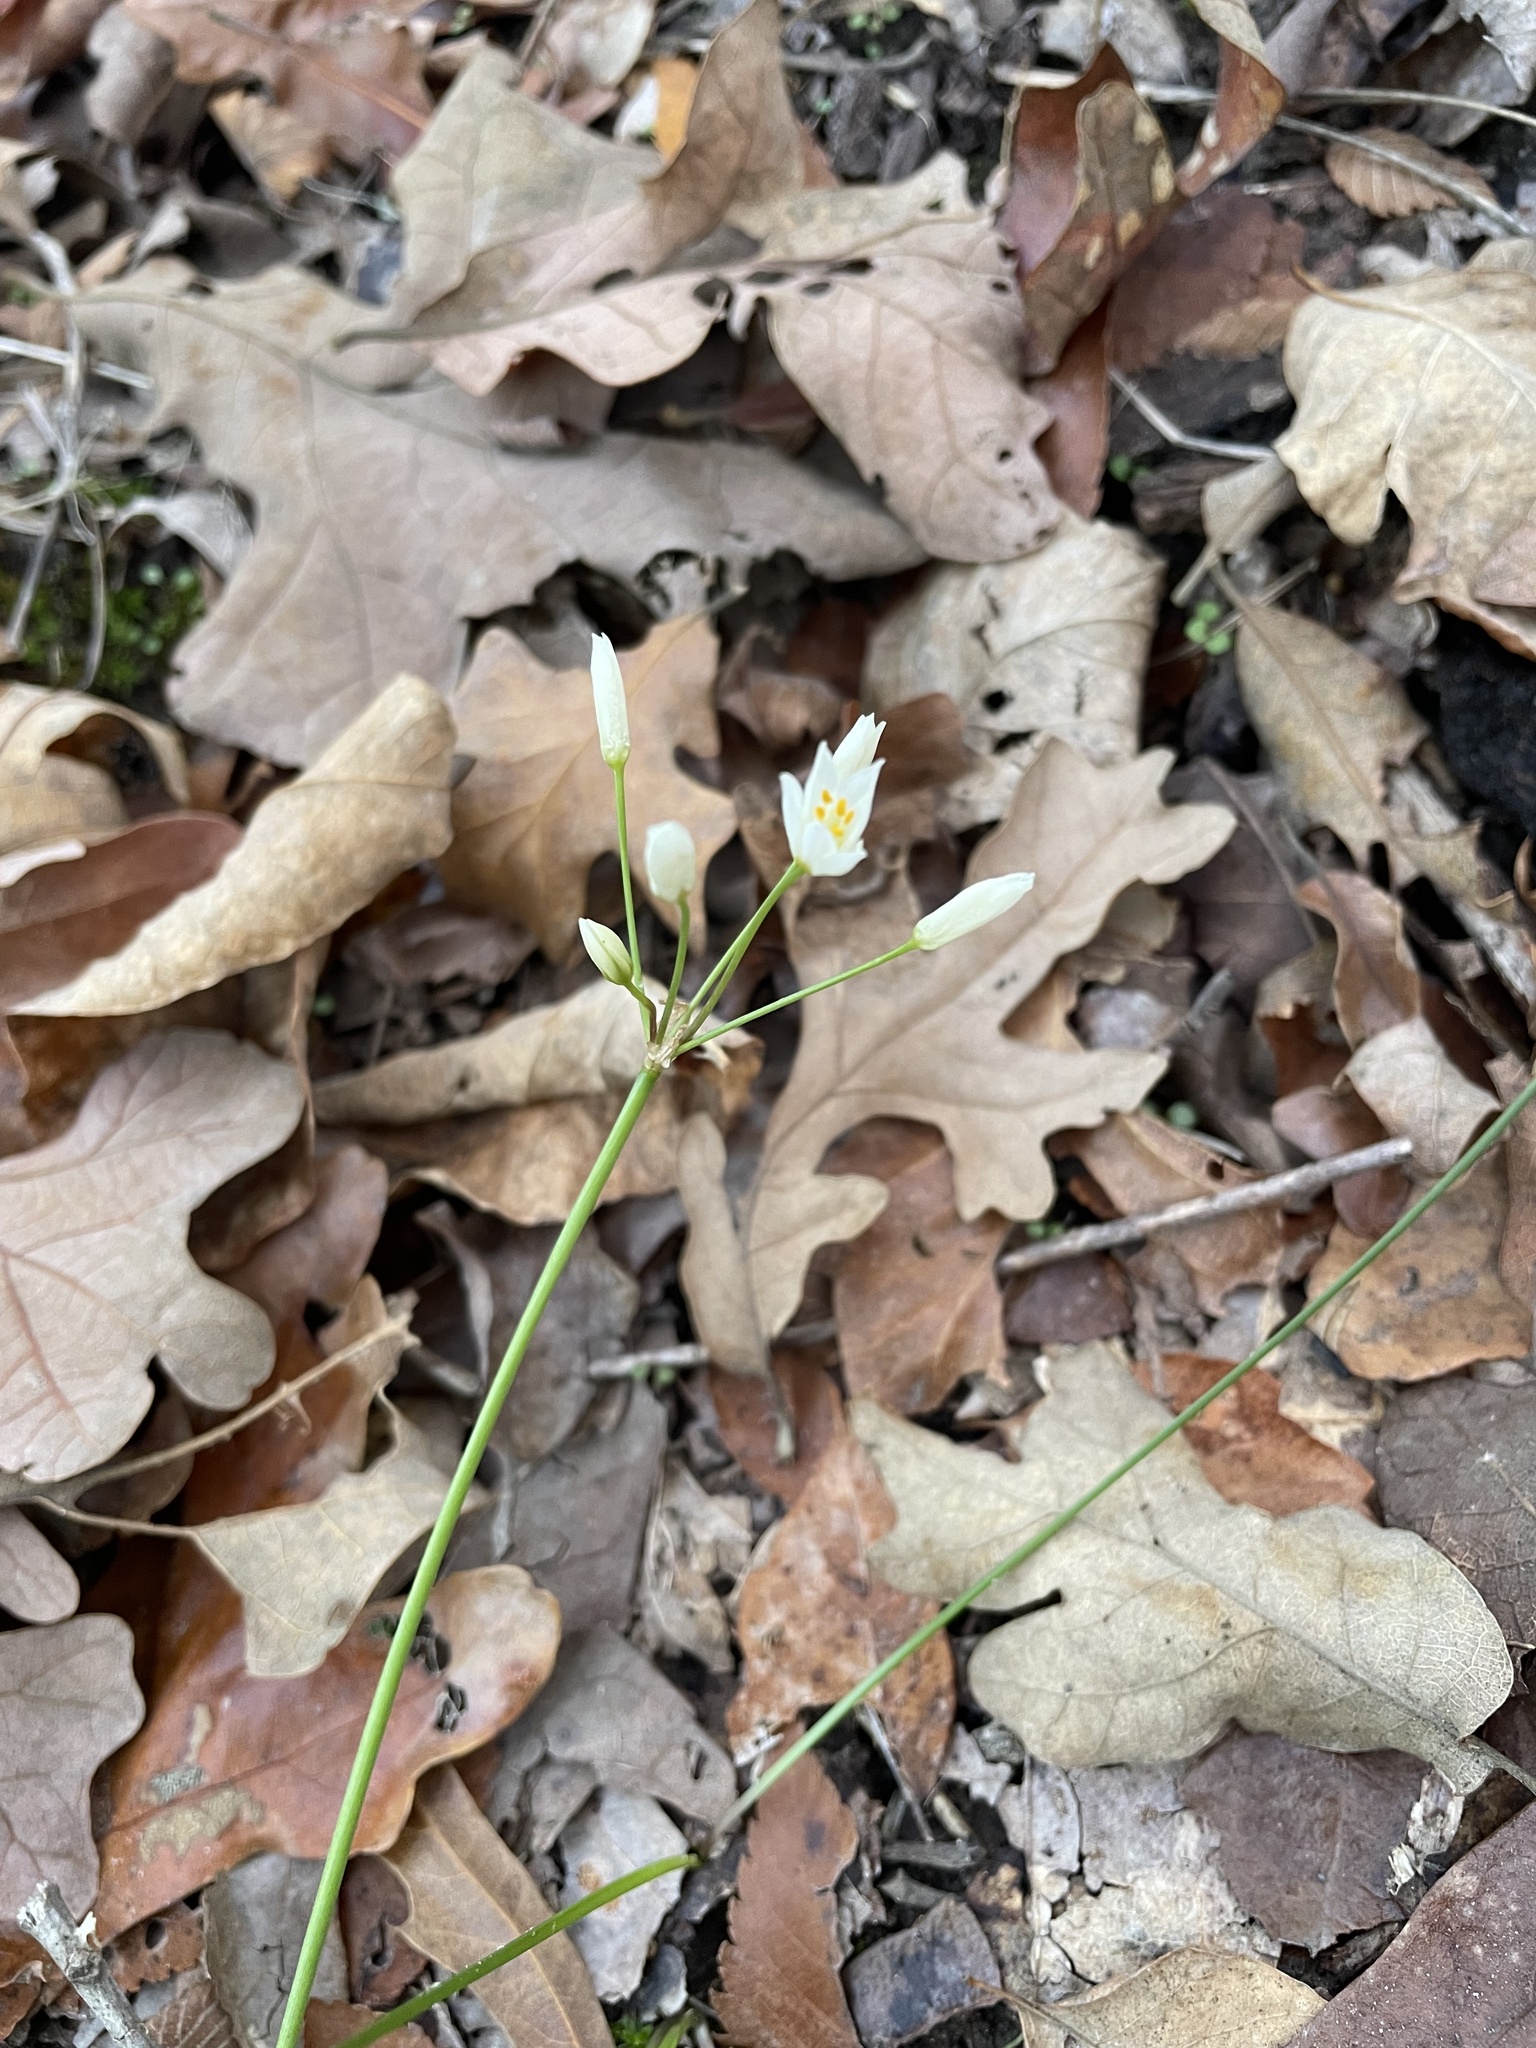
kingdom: Plantae
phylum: Tracheophyta
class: Liliopsida
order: Asparagales
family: Amaryllidaceae
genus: Nothoscordum
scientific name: Nothoscordum bivalve
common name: Crow-poison
